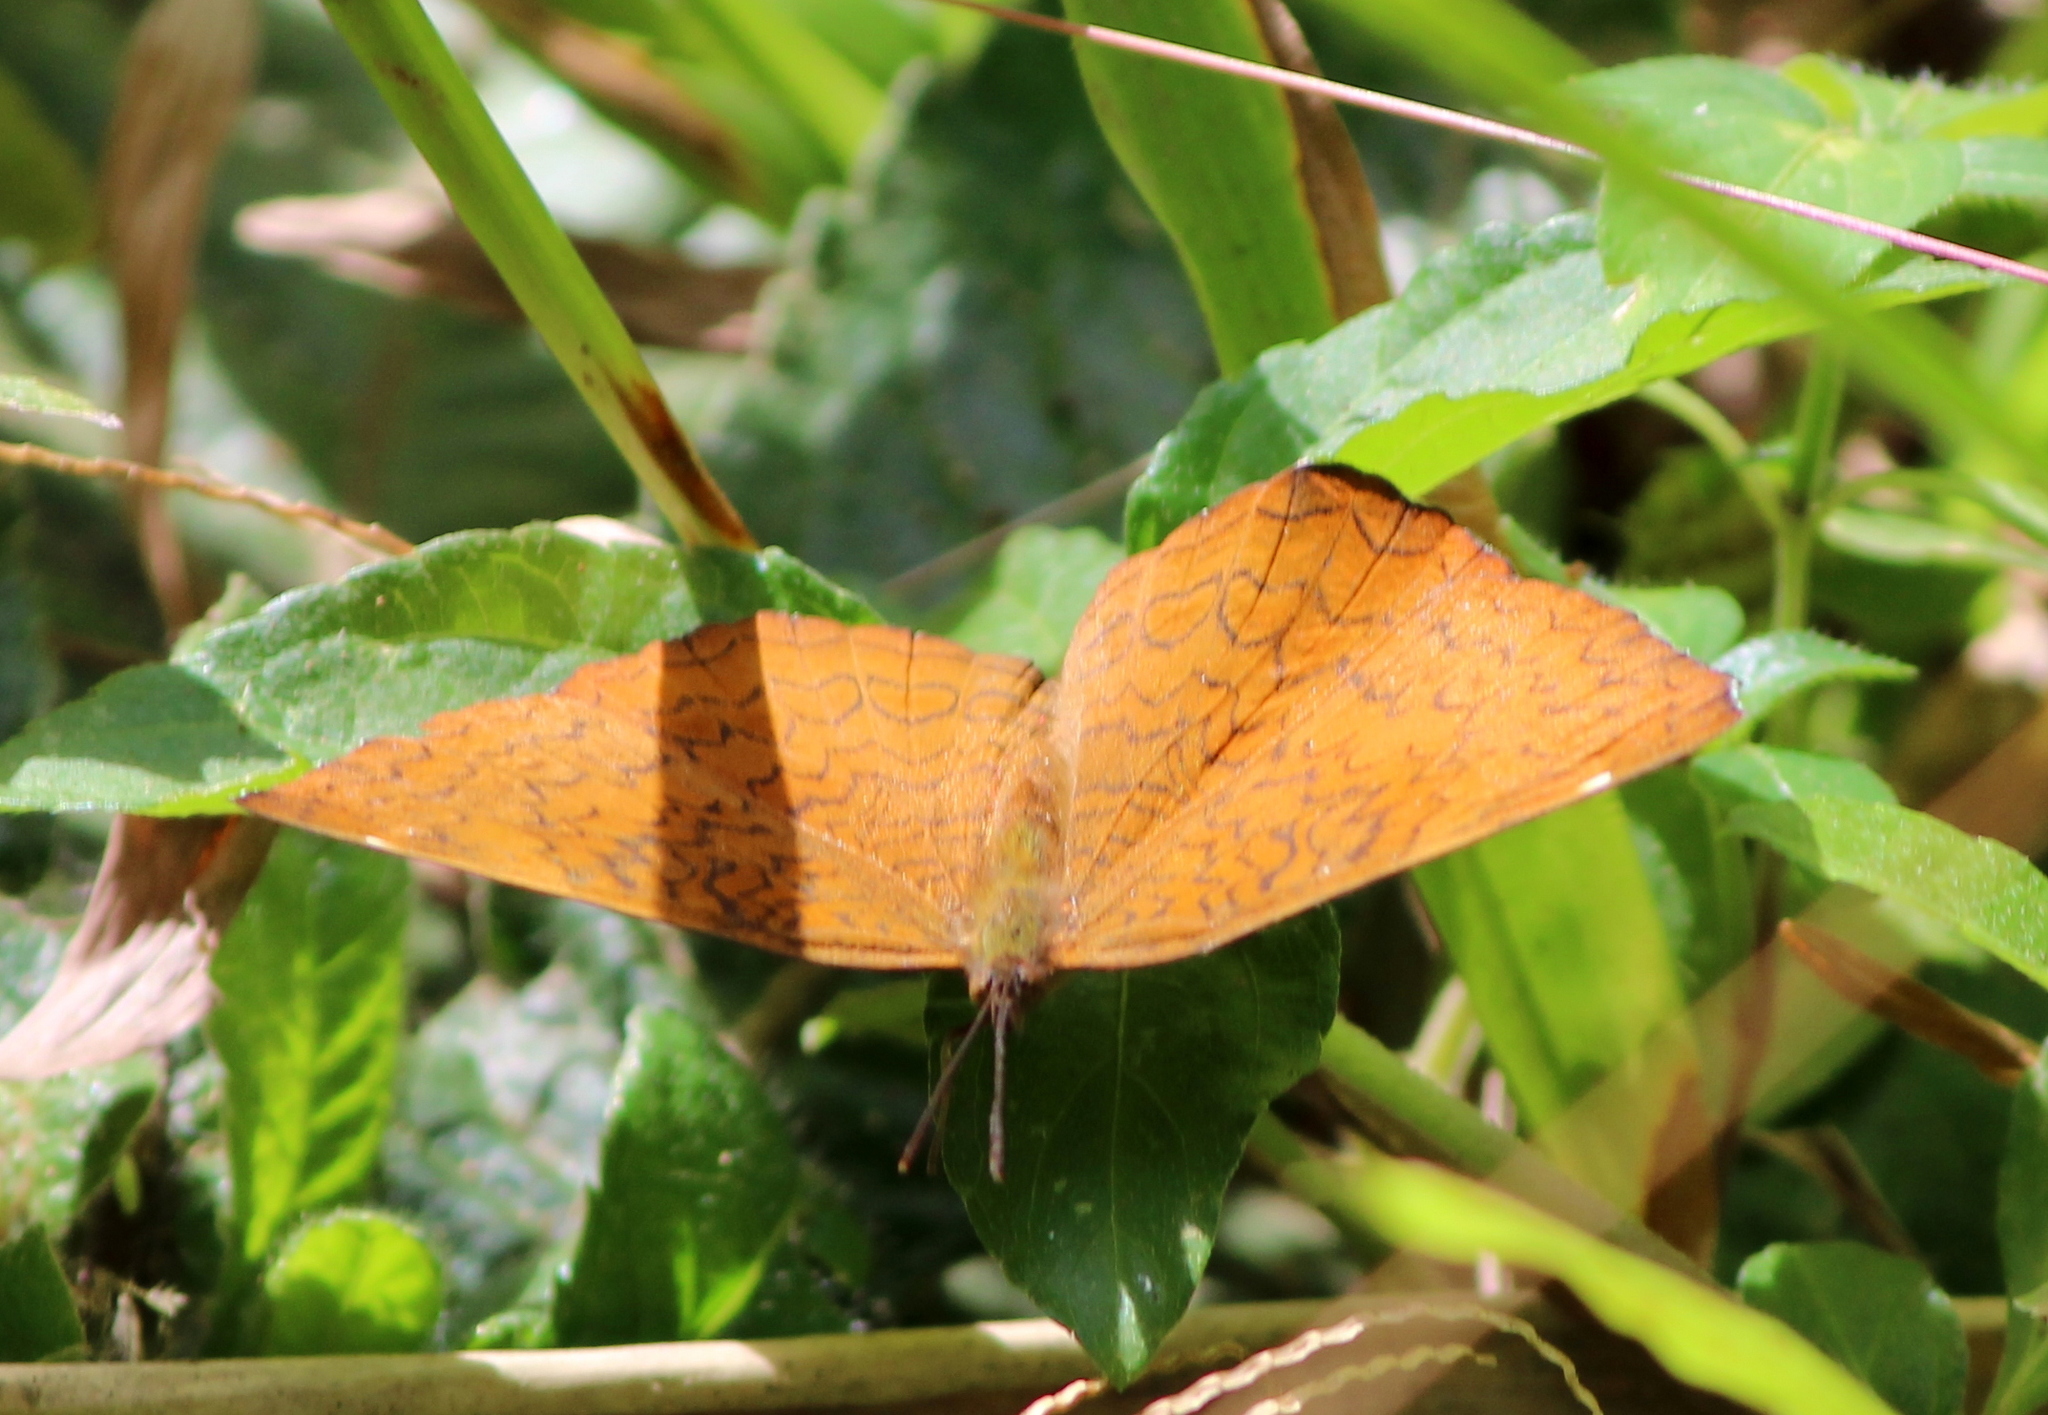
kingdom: Animalia
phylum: Arthropoda
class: Insecta
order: Lepidoptera
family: Nymphalidae
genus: Ariadne
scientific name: Ariadne merione
